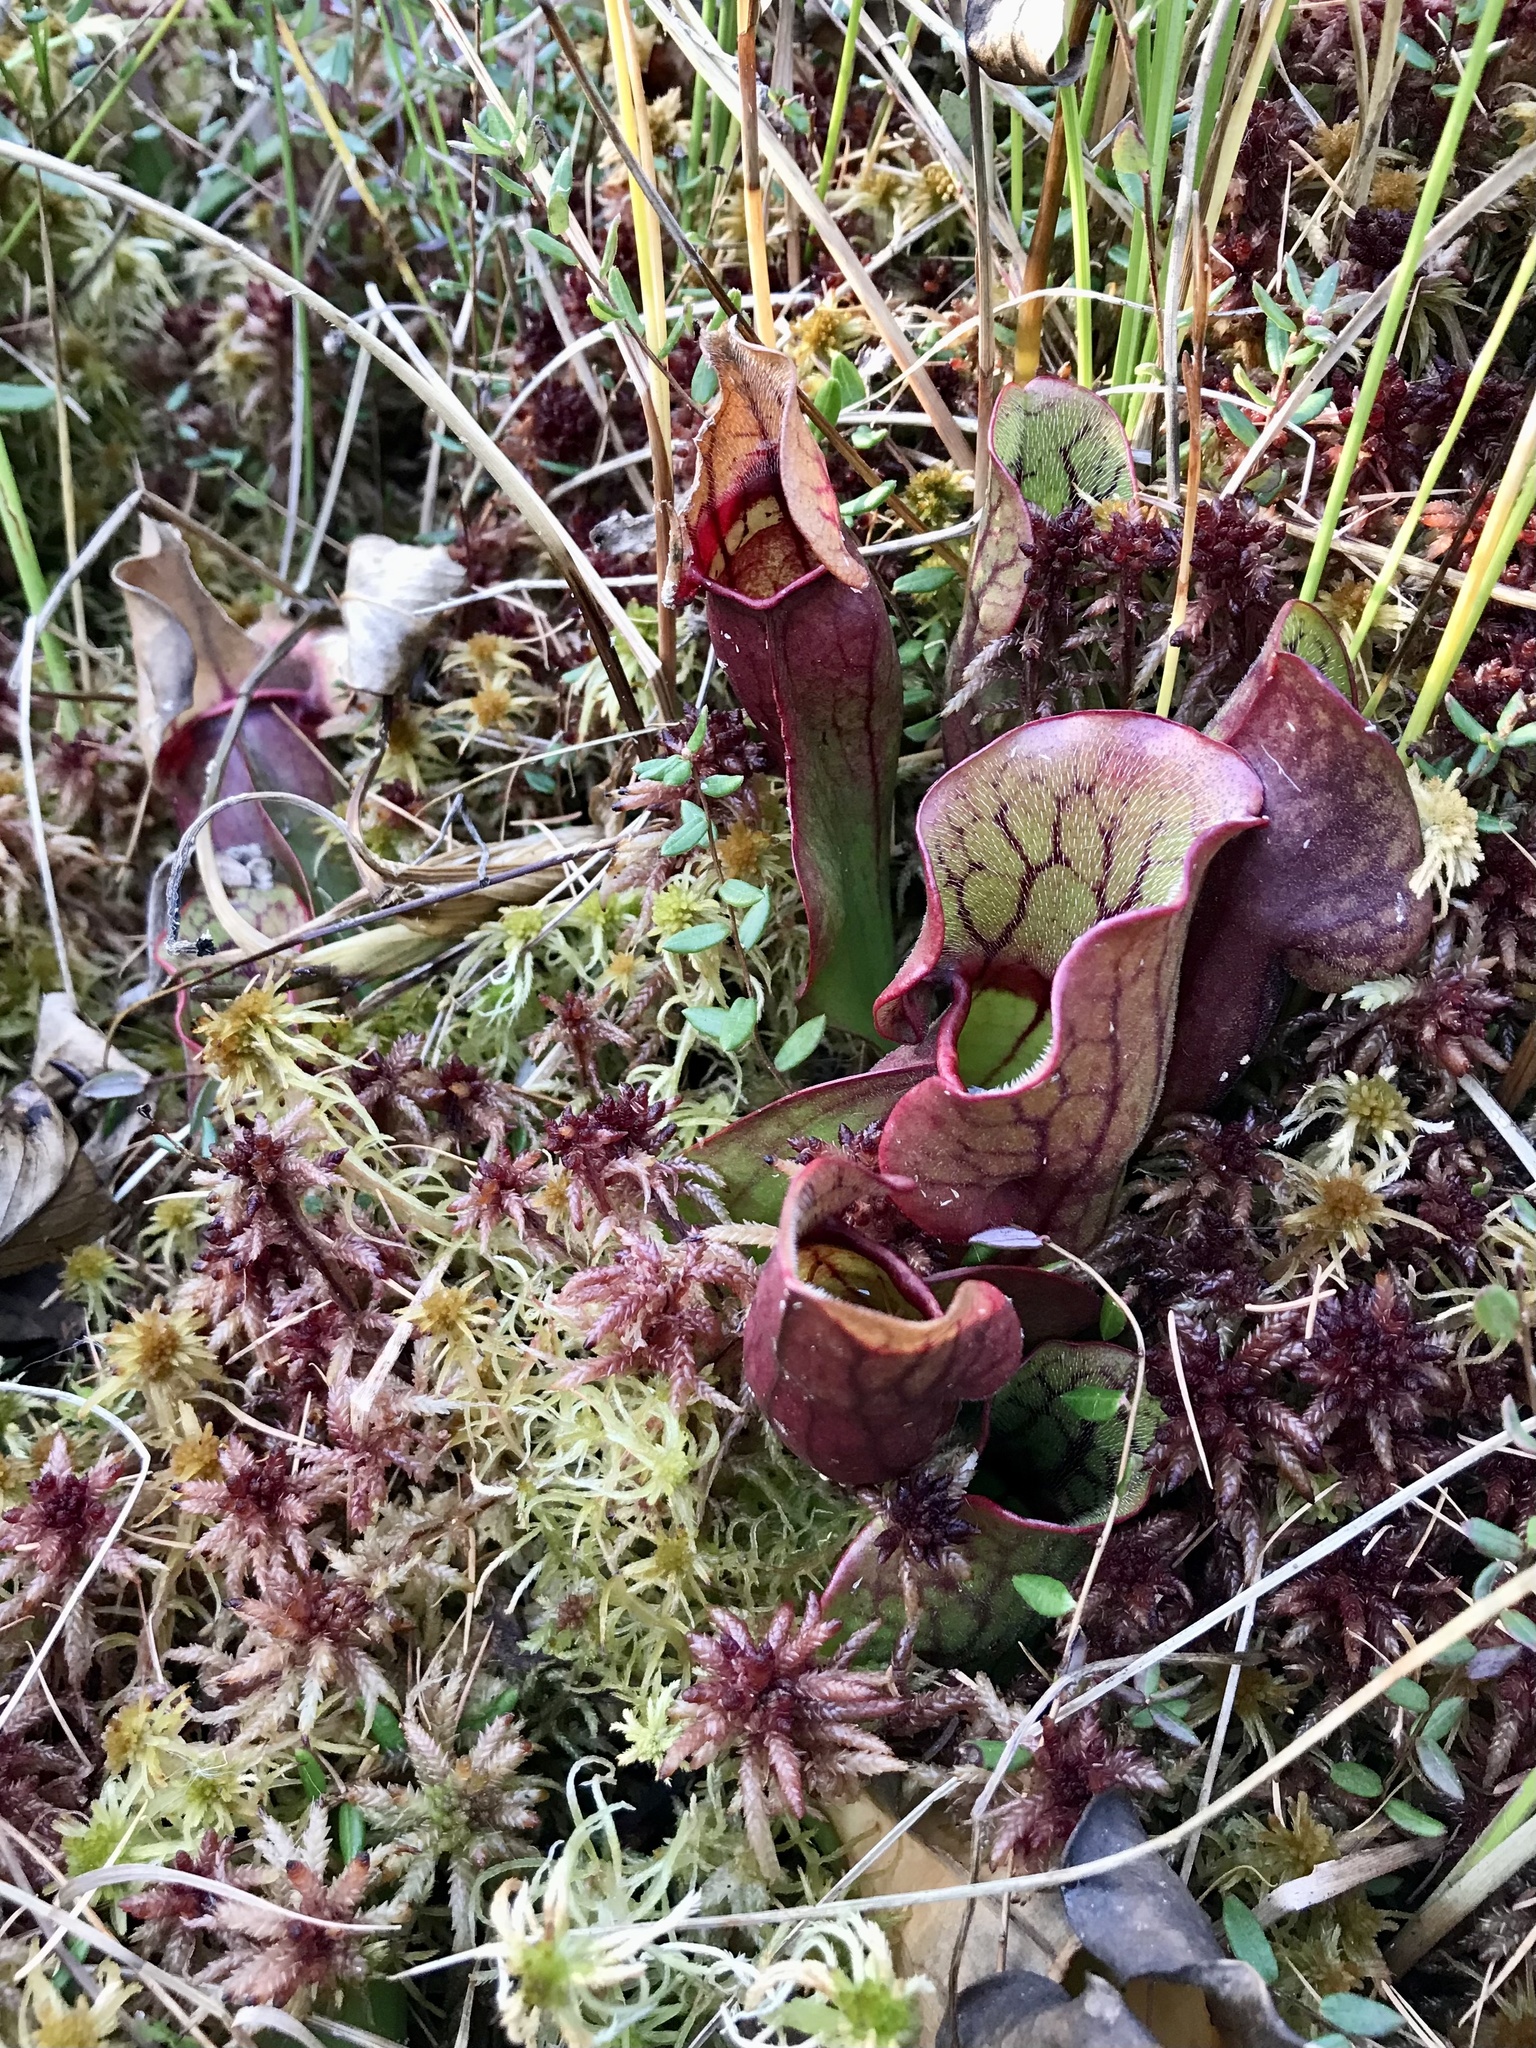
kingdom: Plantae
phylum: Tracheophyta
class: Magnoliopsida
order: Ericales
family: Sarraceniaceae
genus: Sarracenia
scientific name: Sarracenia purpurea
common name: Pitcherplant
